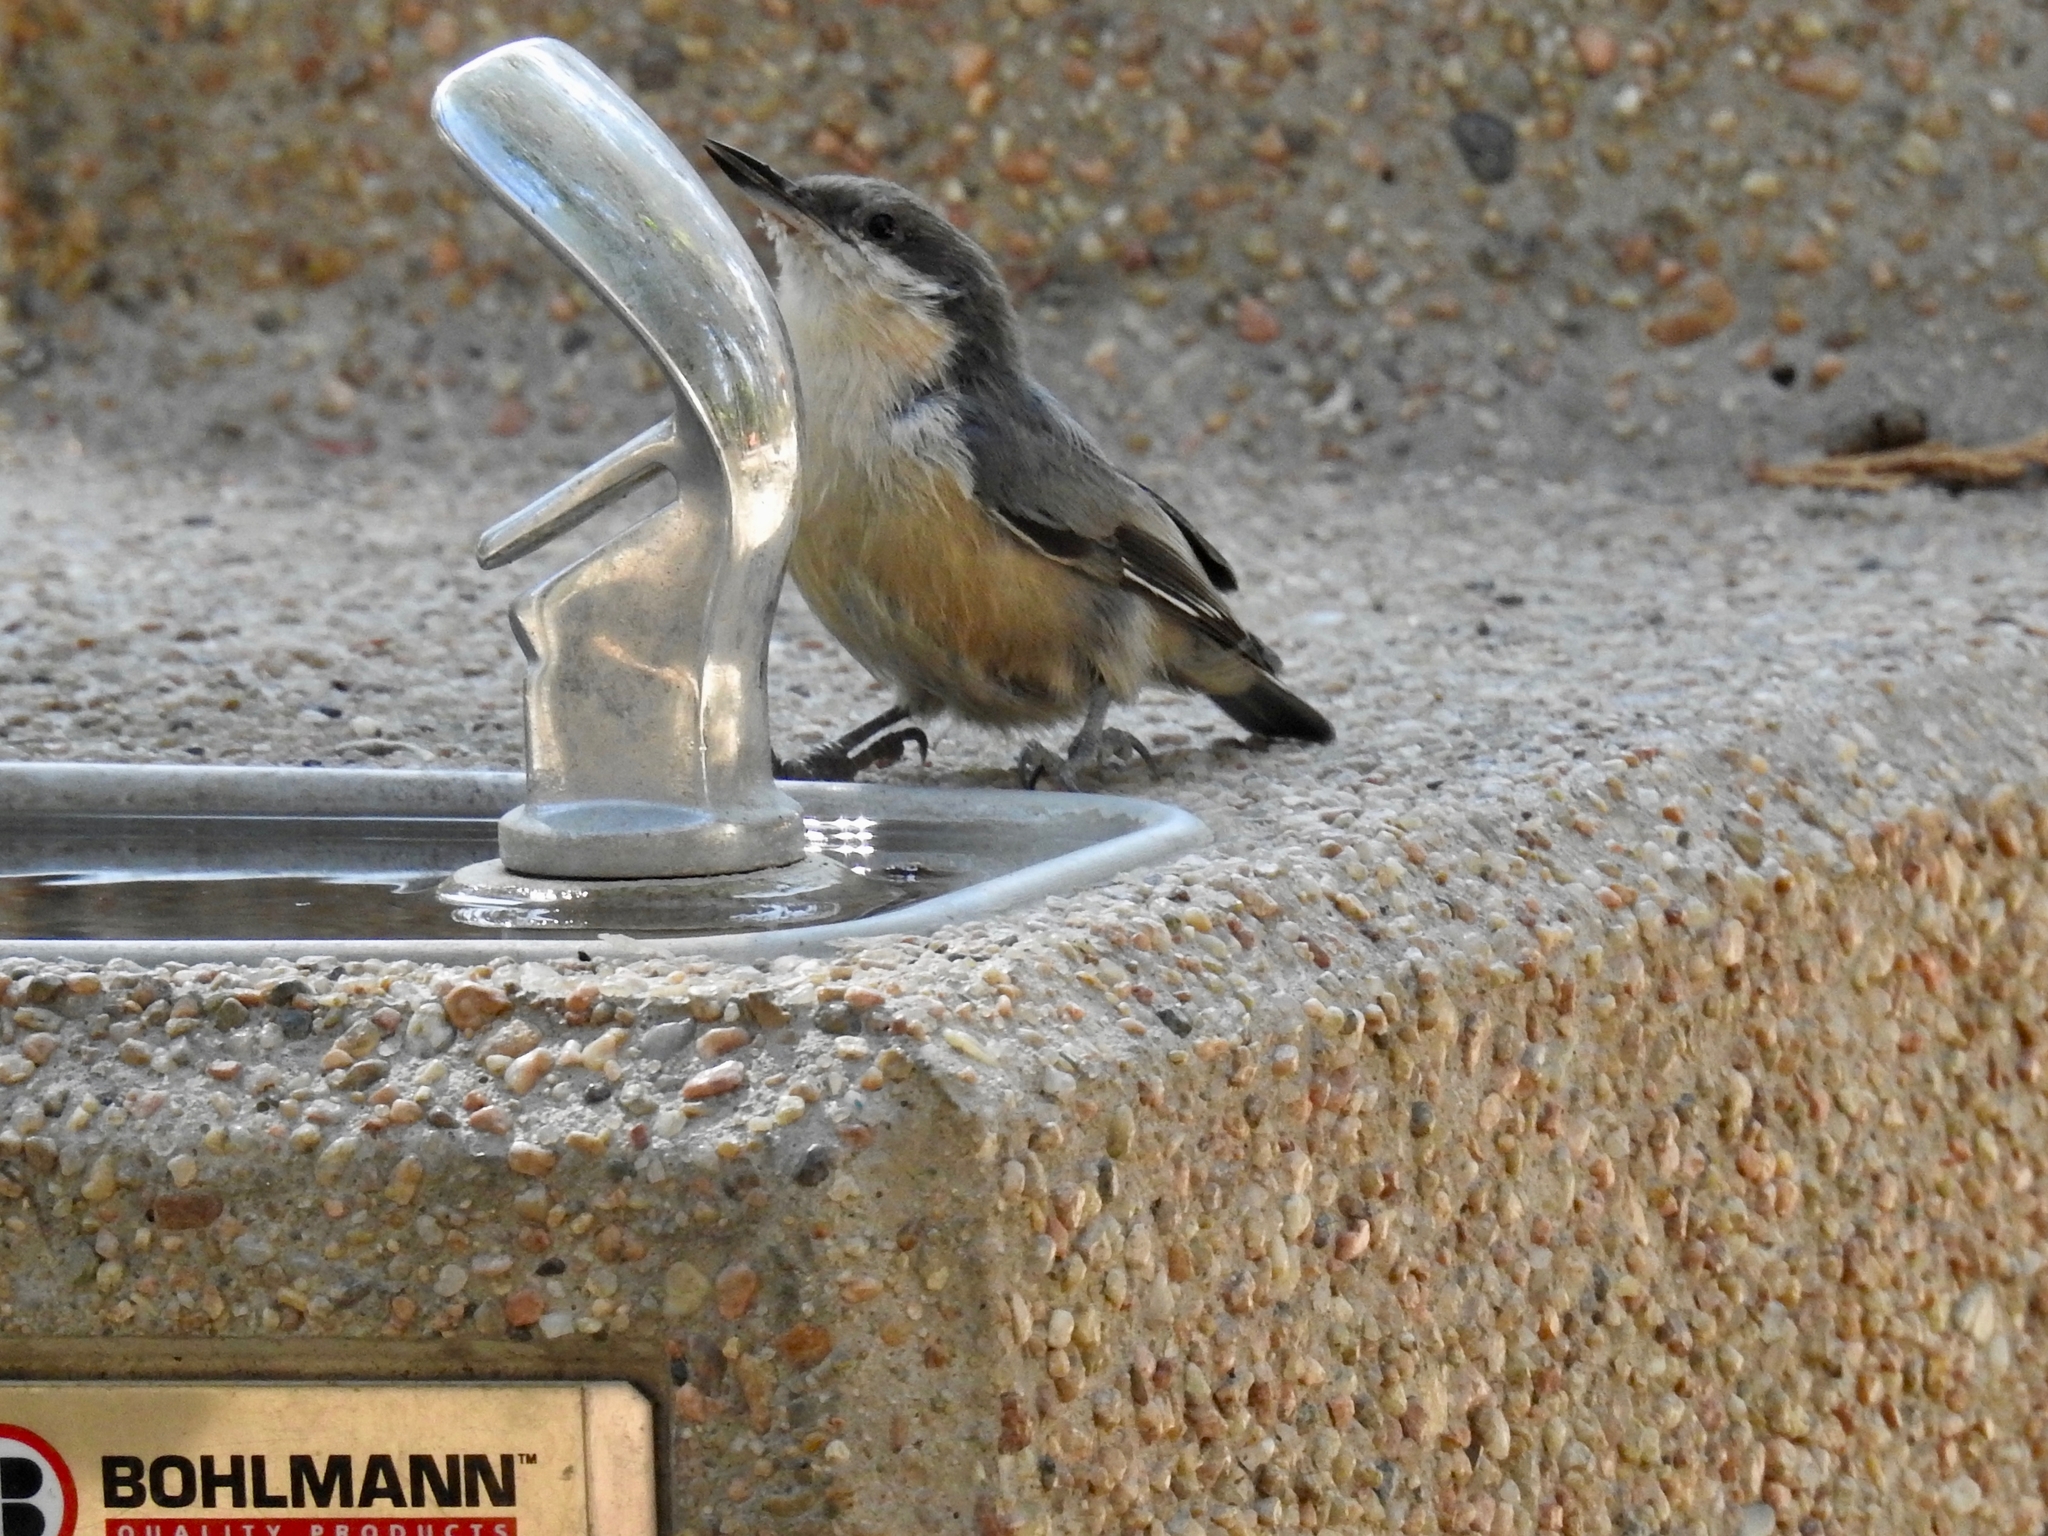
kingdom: Animalia
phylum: Chordata
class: Aves
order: Passeriformes
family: Sittidae
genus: Sitta
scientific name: Sitta pygmaea
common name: Pygmy nuthatch
